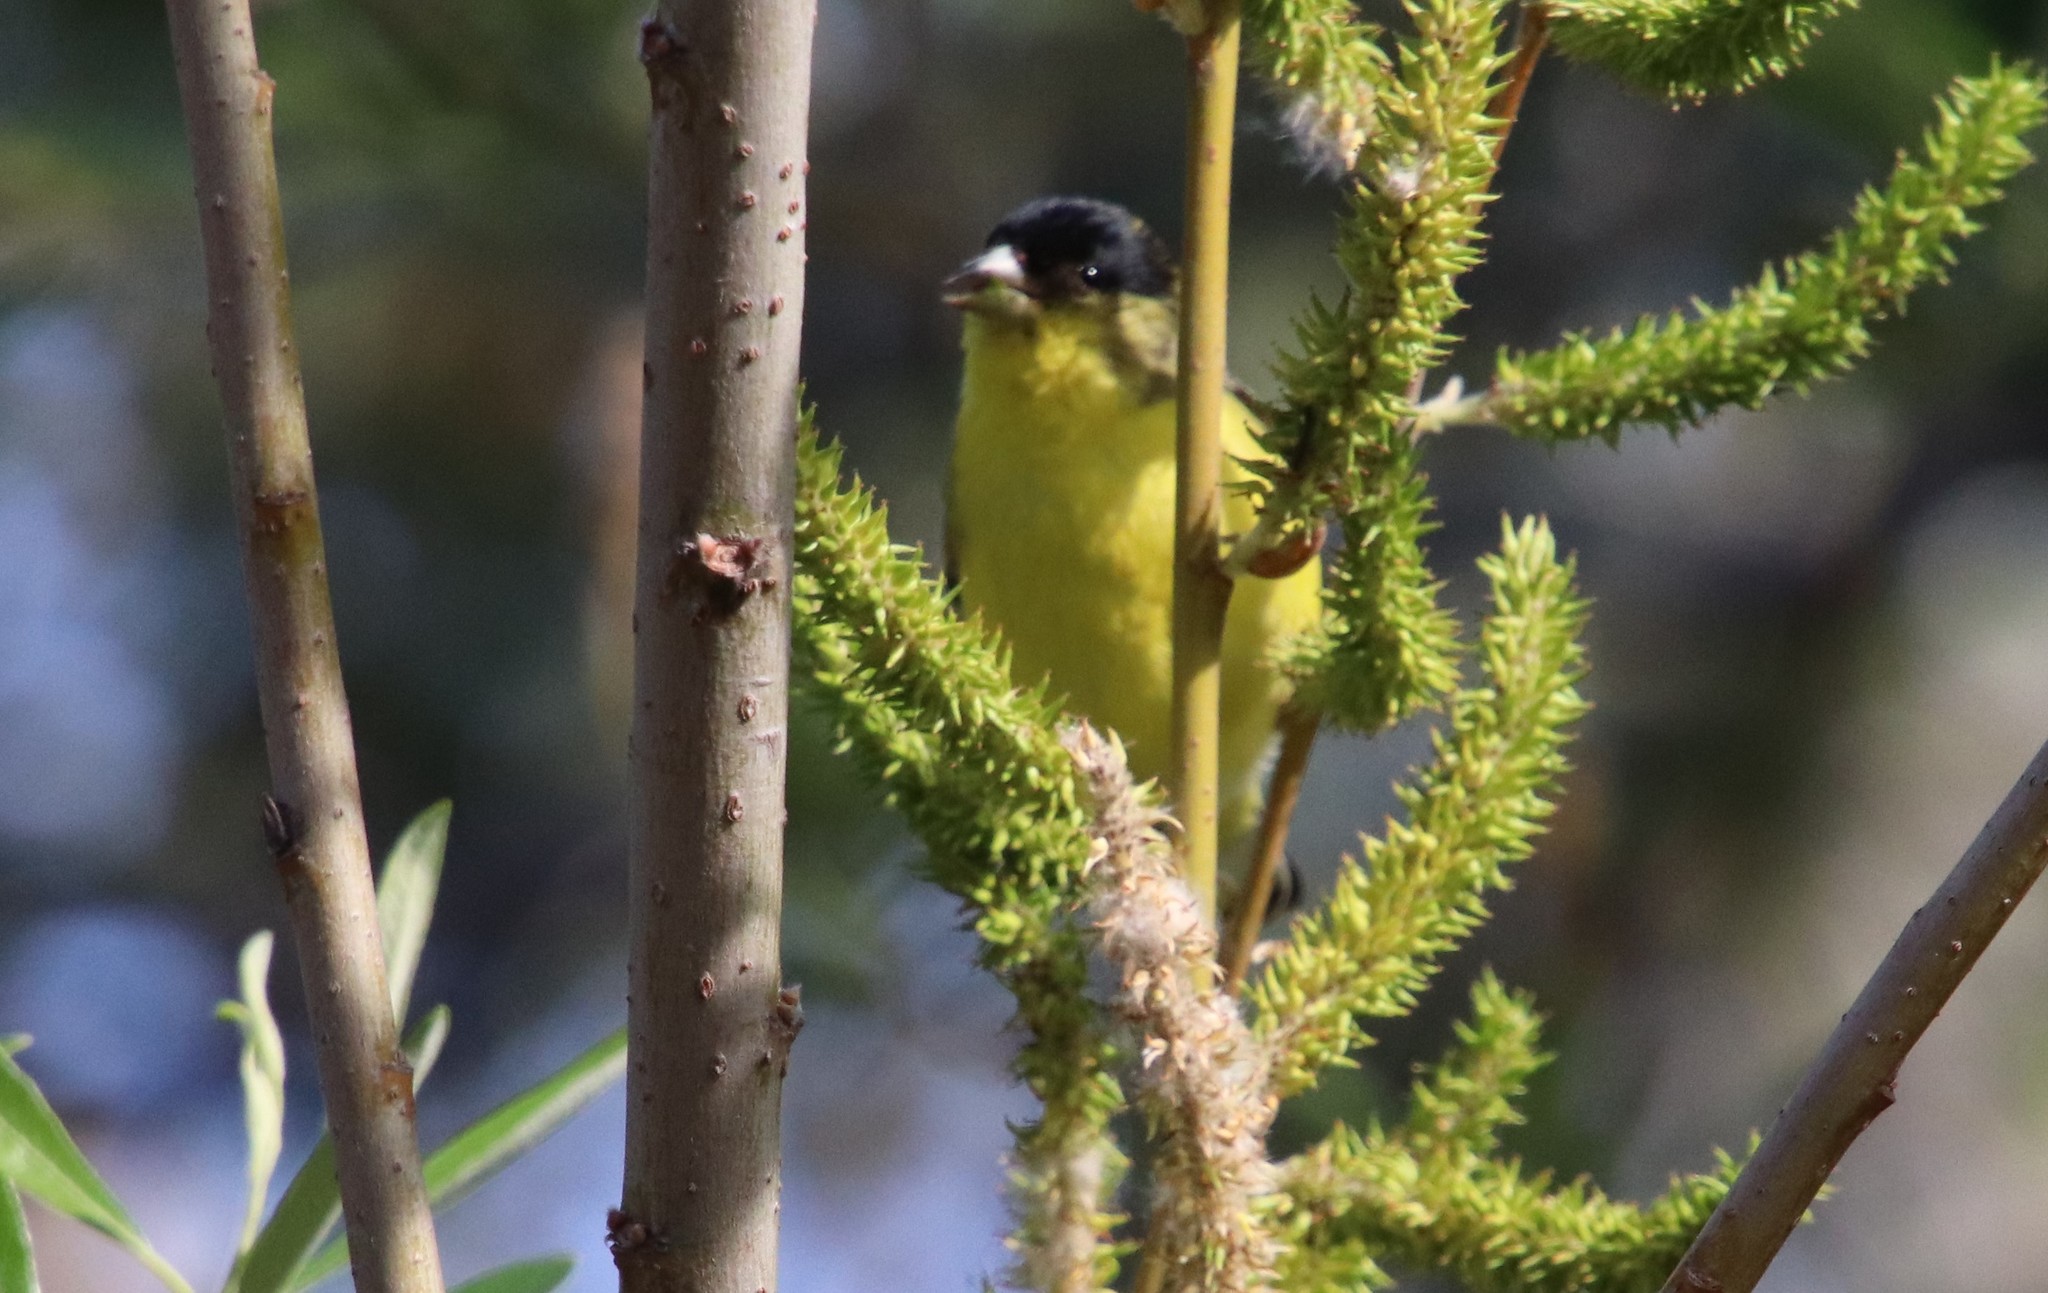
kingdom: Animalia
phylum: Chordata
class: Aves
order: Passeriformes
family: Fringillidae
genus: Spinus
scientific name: Spinus psaltria
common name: Lesser goldfinch
